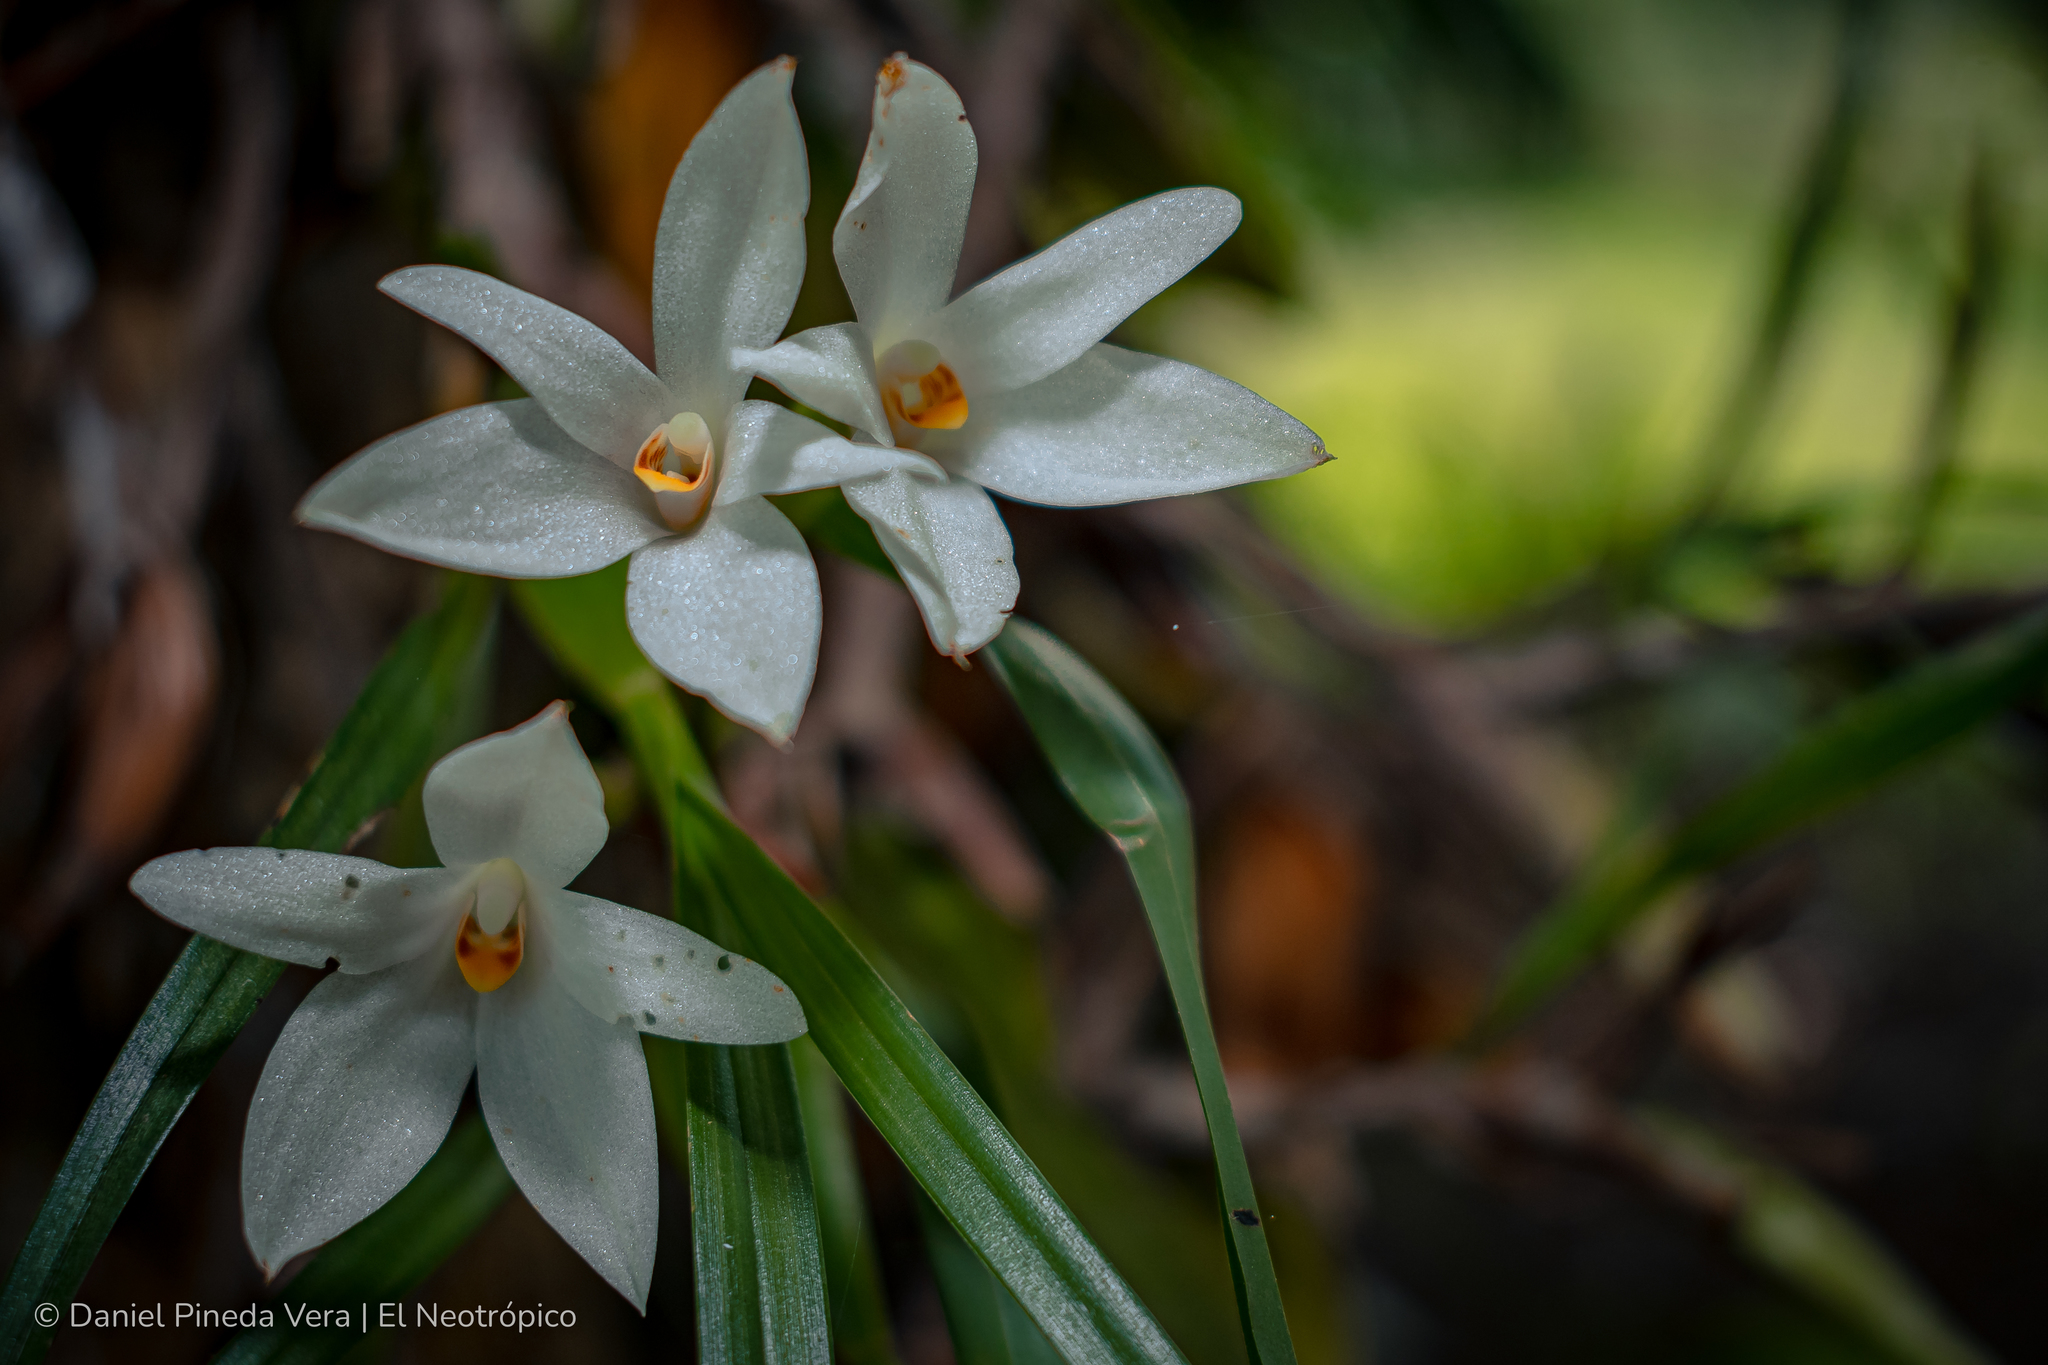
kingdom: Plantae
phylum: Tracheophyta
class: Liliopsida
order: Asparagales
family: Orchidaceae
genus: Maxillaria
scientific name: Maxillaria pulchra
